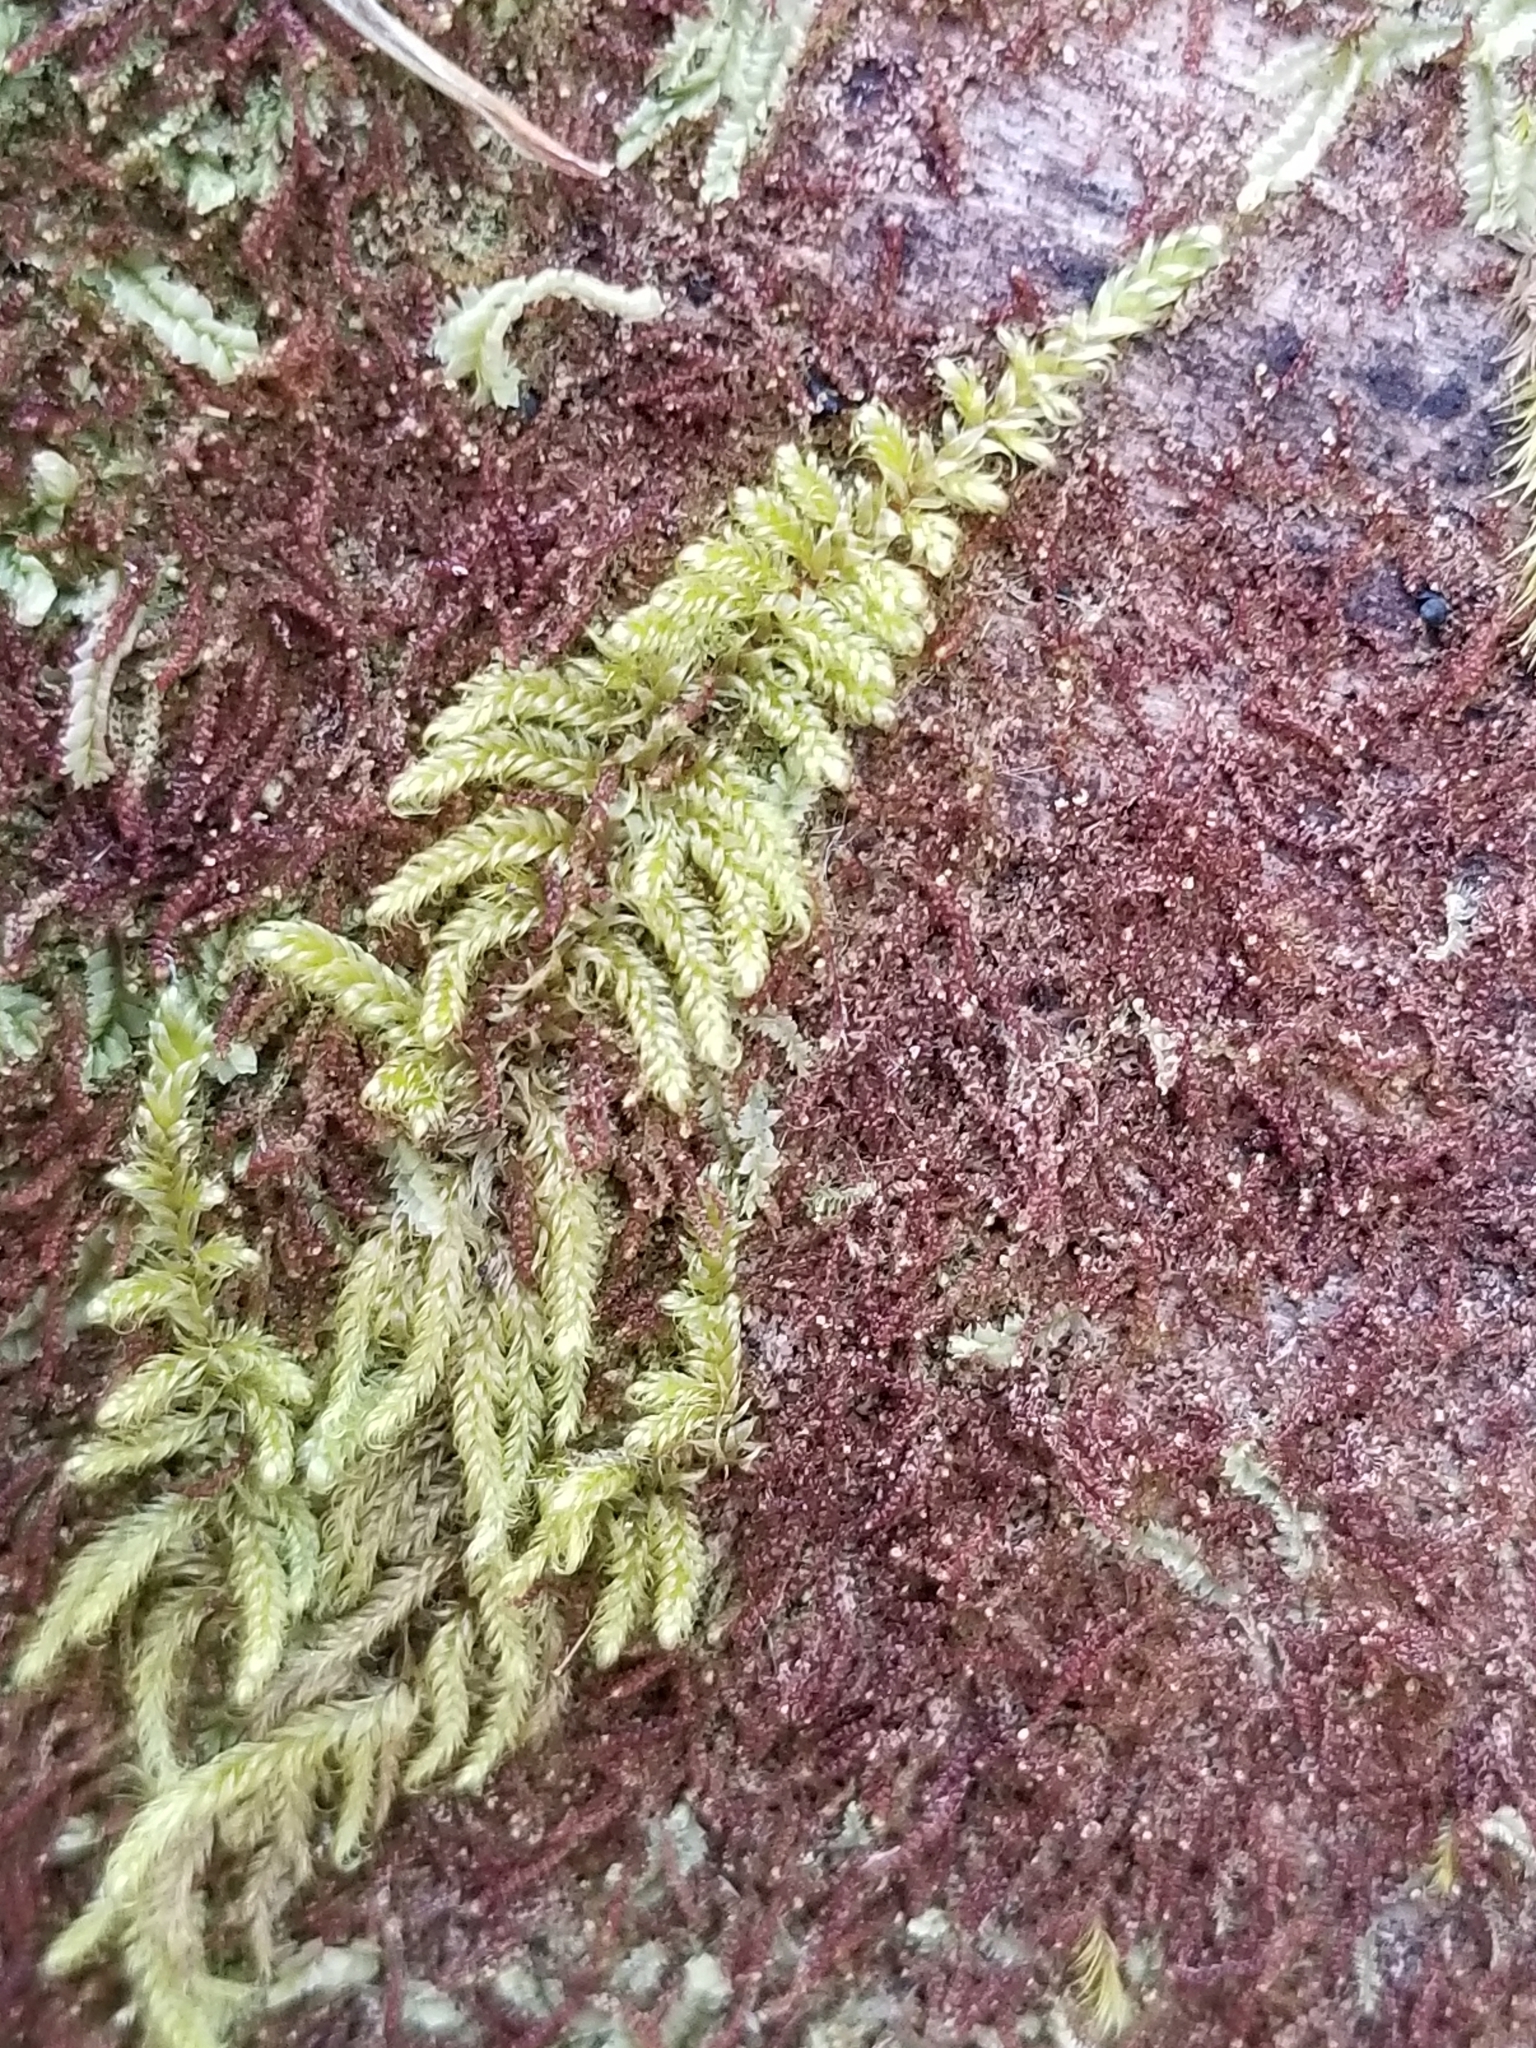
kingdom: Plantae
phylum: Marchantiophyta
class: Jungermanniopsida
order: Jungermanniales
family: Cephaloziaceae
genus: Nowellia
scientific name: Nowellia curvifolia
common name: Wood rustwort
